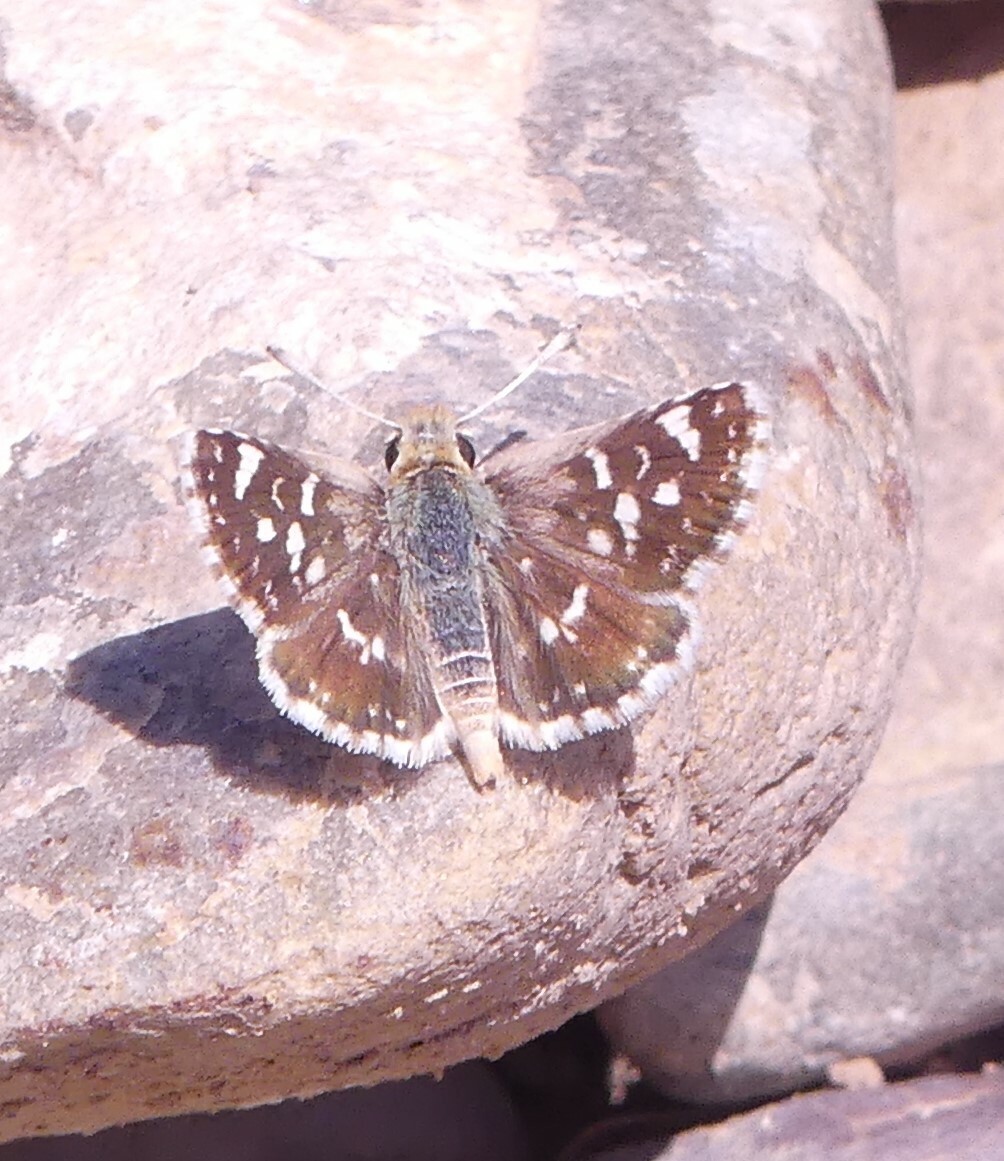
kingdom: Animalia
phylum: Arthropoda
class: Insecta
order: Lepidoptera
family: Hesperiidae
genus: Spialia
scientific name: Spialia sertorius
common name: Red underwing skipper
